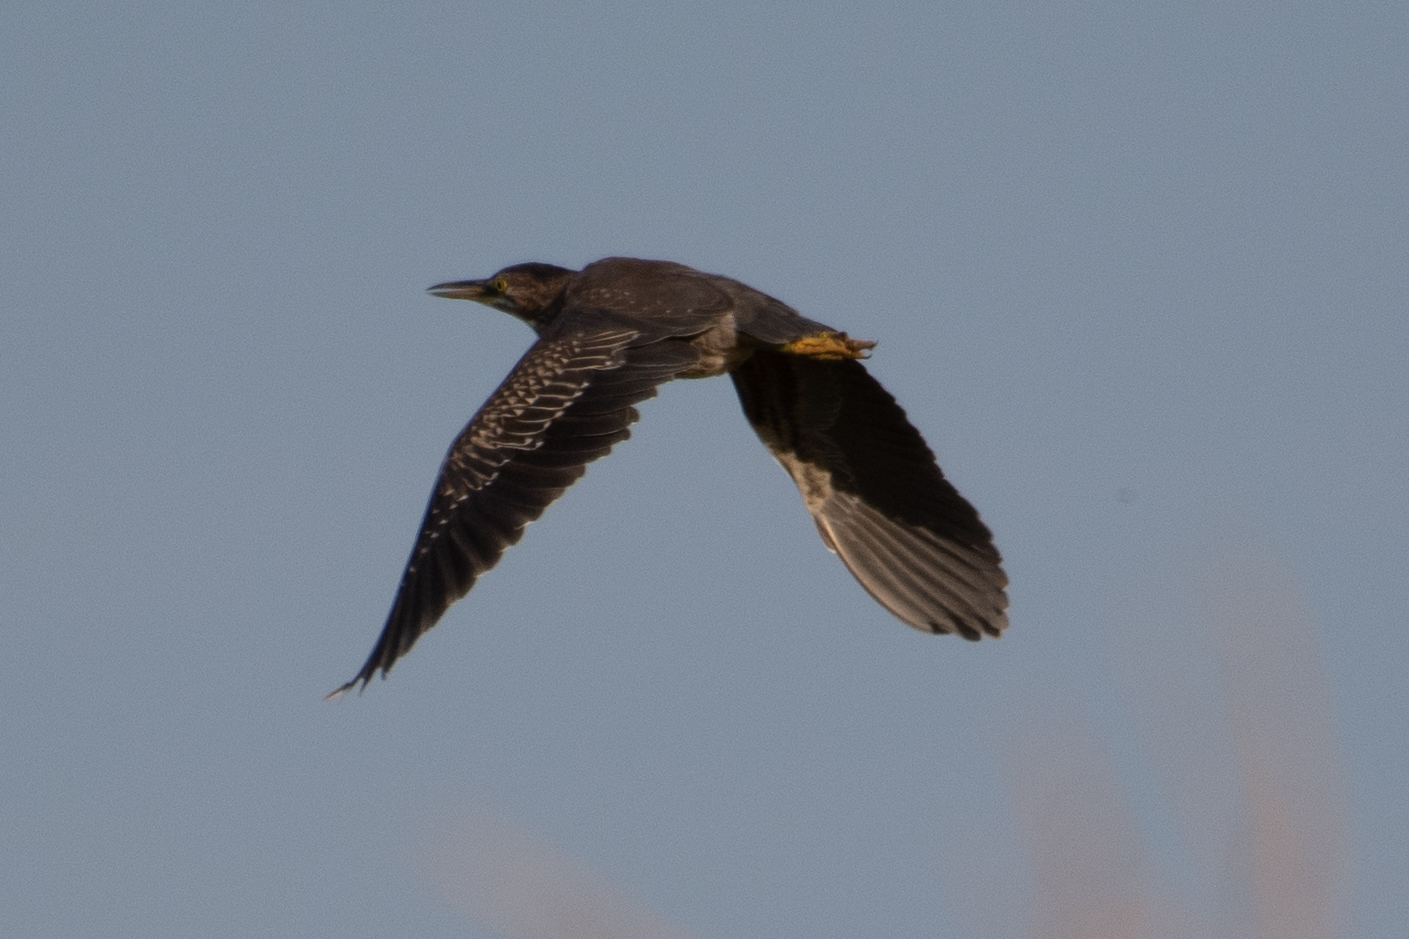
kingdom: Animalia
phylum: Chordata
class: Aves
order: Pelecaniformes
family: Ardeidae
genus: Butorides
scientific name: Butorides virescens
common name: Green heron
